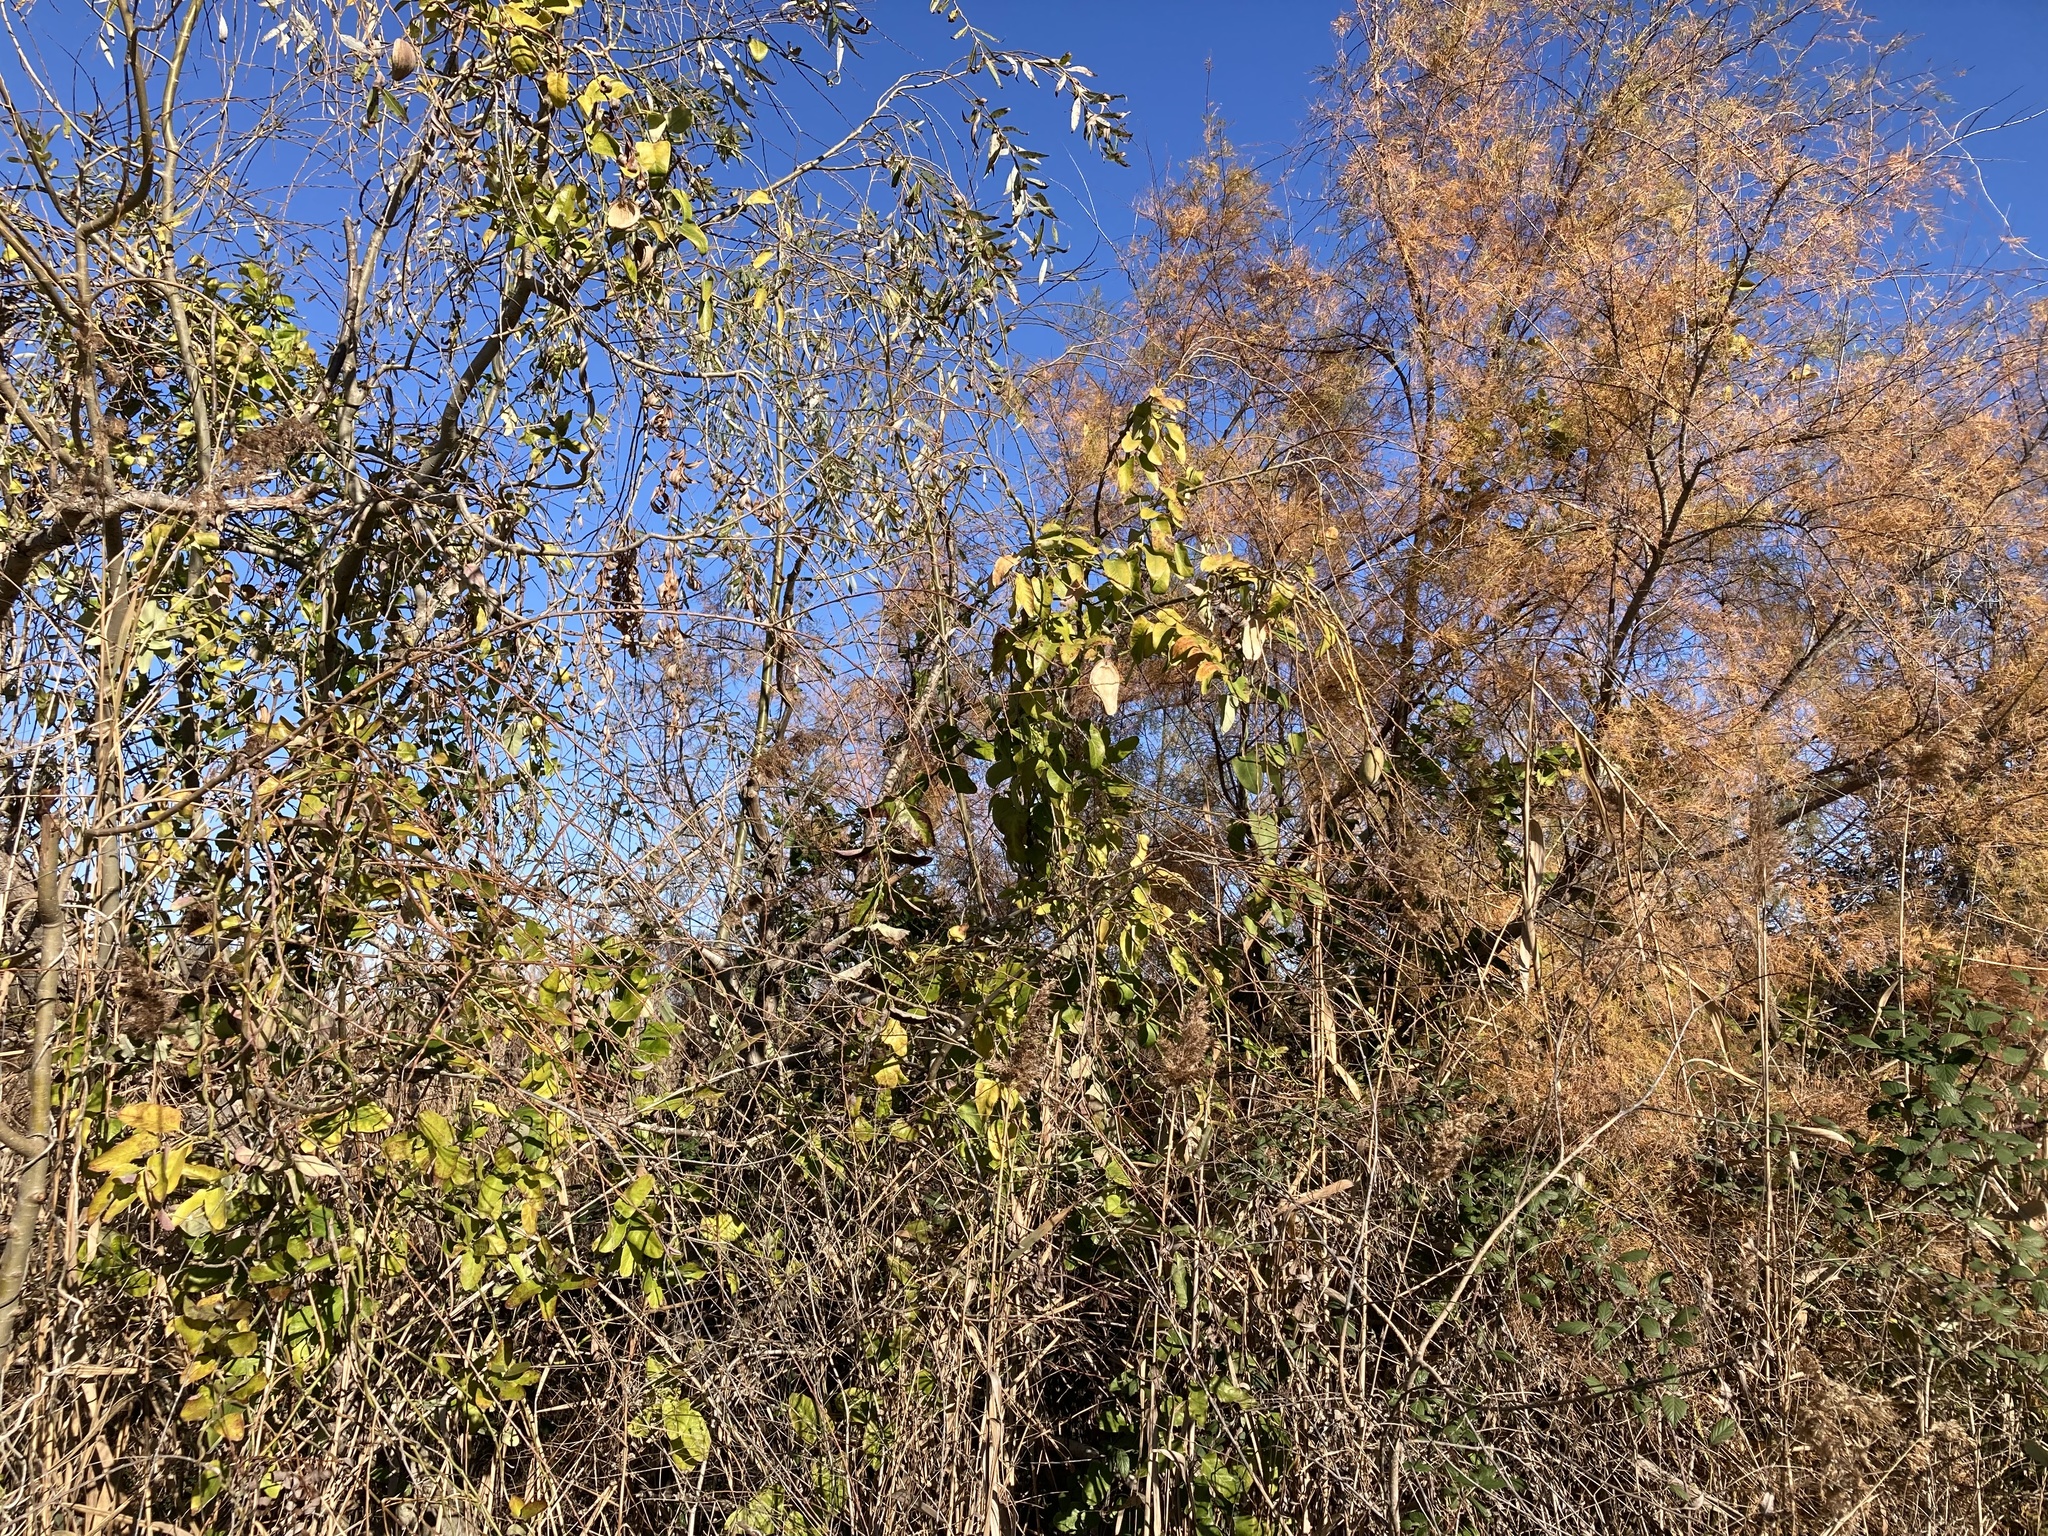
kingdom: Plantae
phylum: Tracheophyta
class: Magnoliopsida
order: Gentianales
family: Apocynaceae
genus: Araujia
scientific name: Araujia sericifera
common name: White bladderflower
